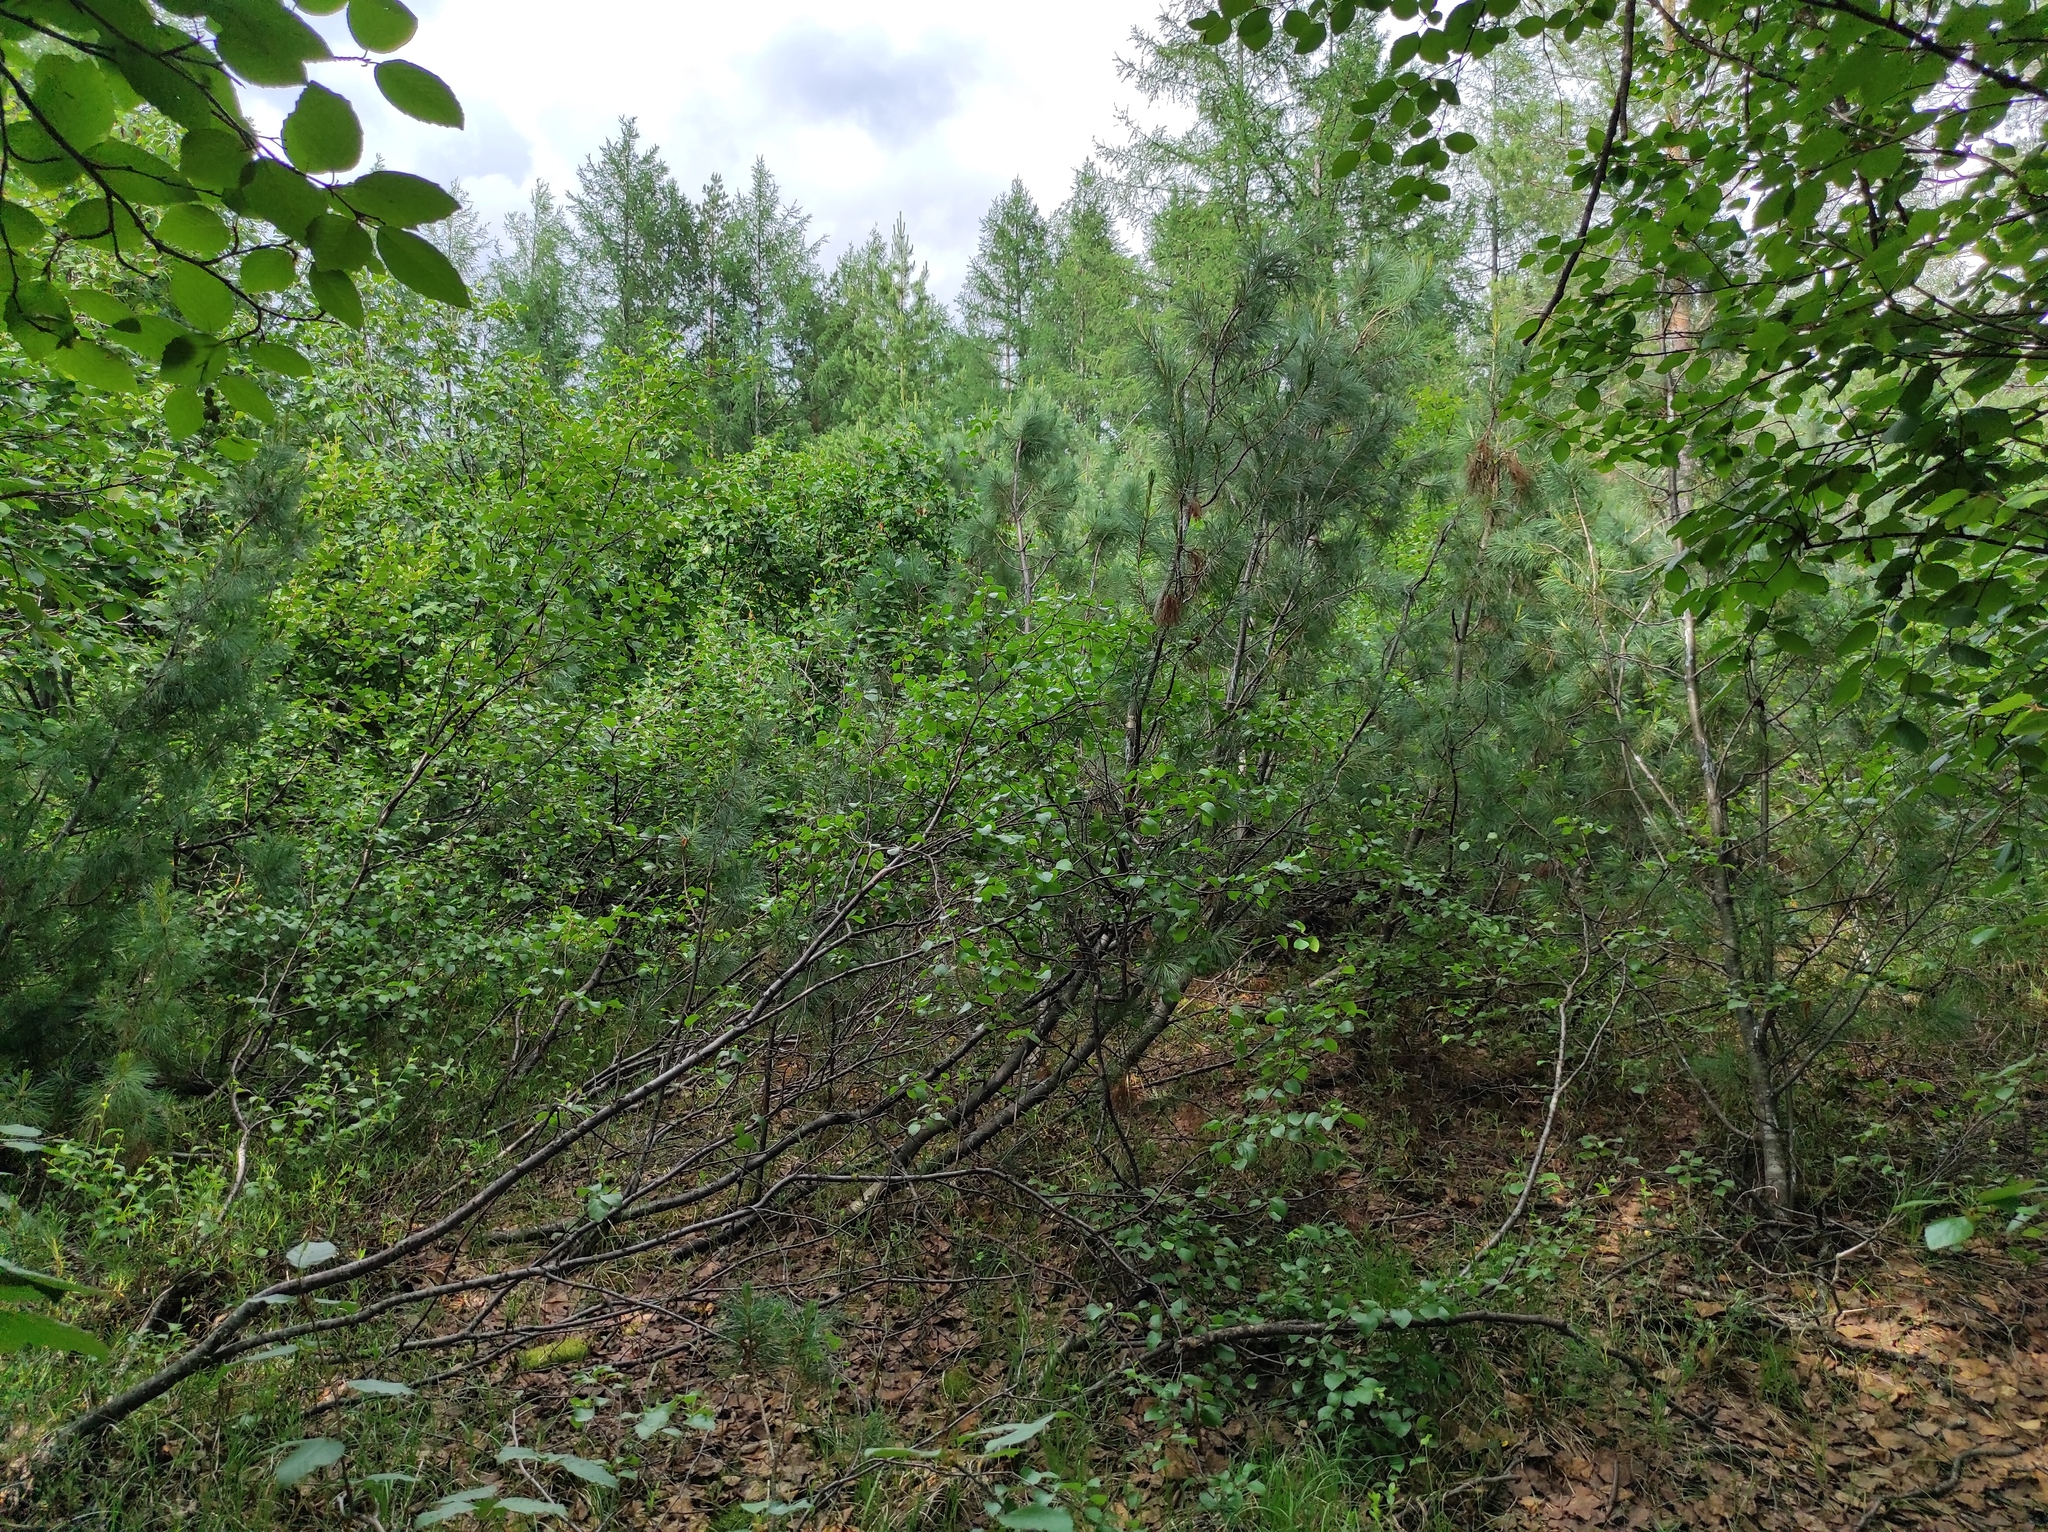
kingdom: Plantae
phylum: Tracheophyta
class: Magnoliopsida
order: Fagales
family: Betulaceae
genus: Alnus
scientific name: Alnus alnobetula
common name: Green alder
